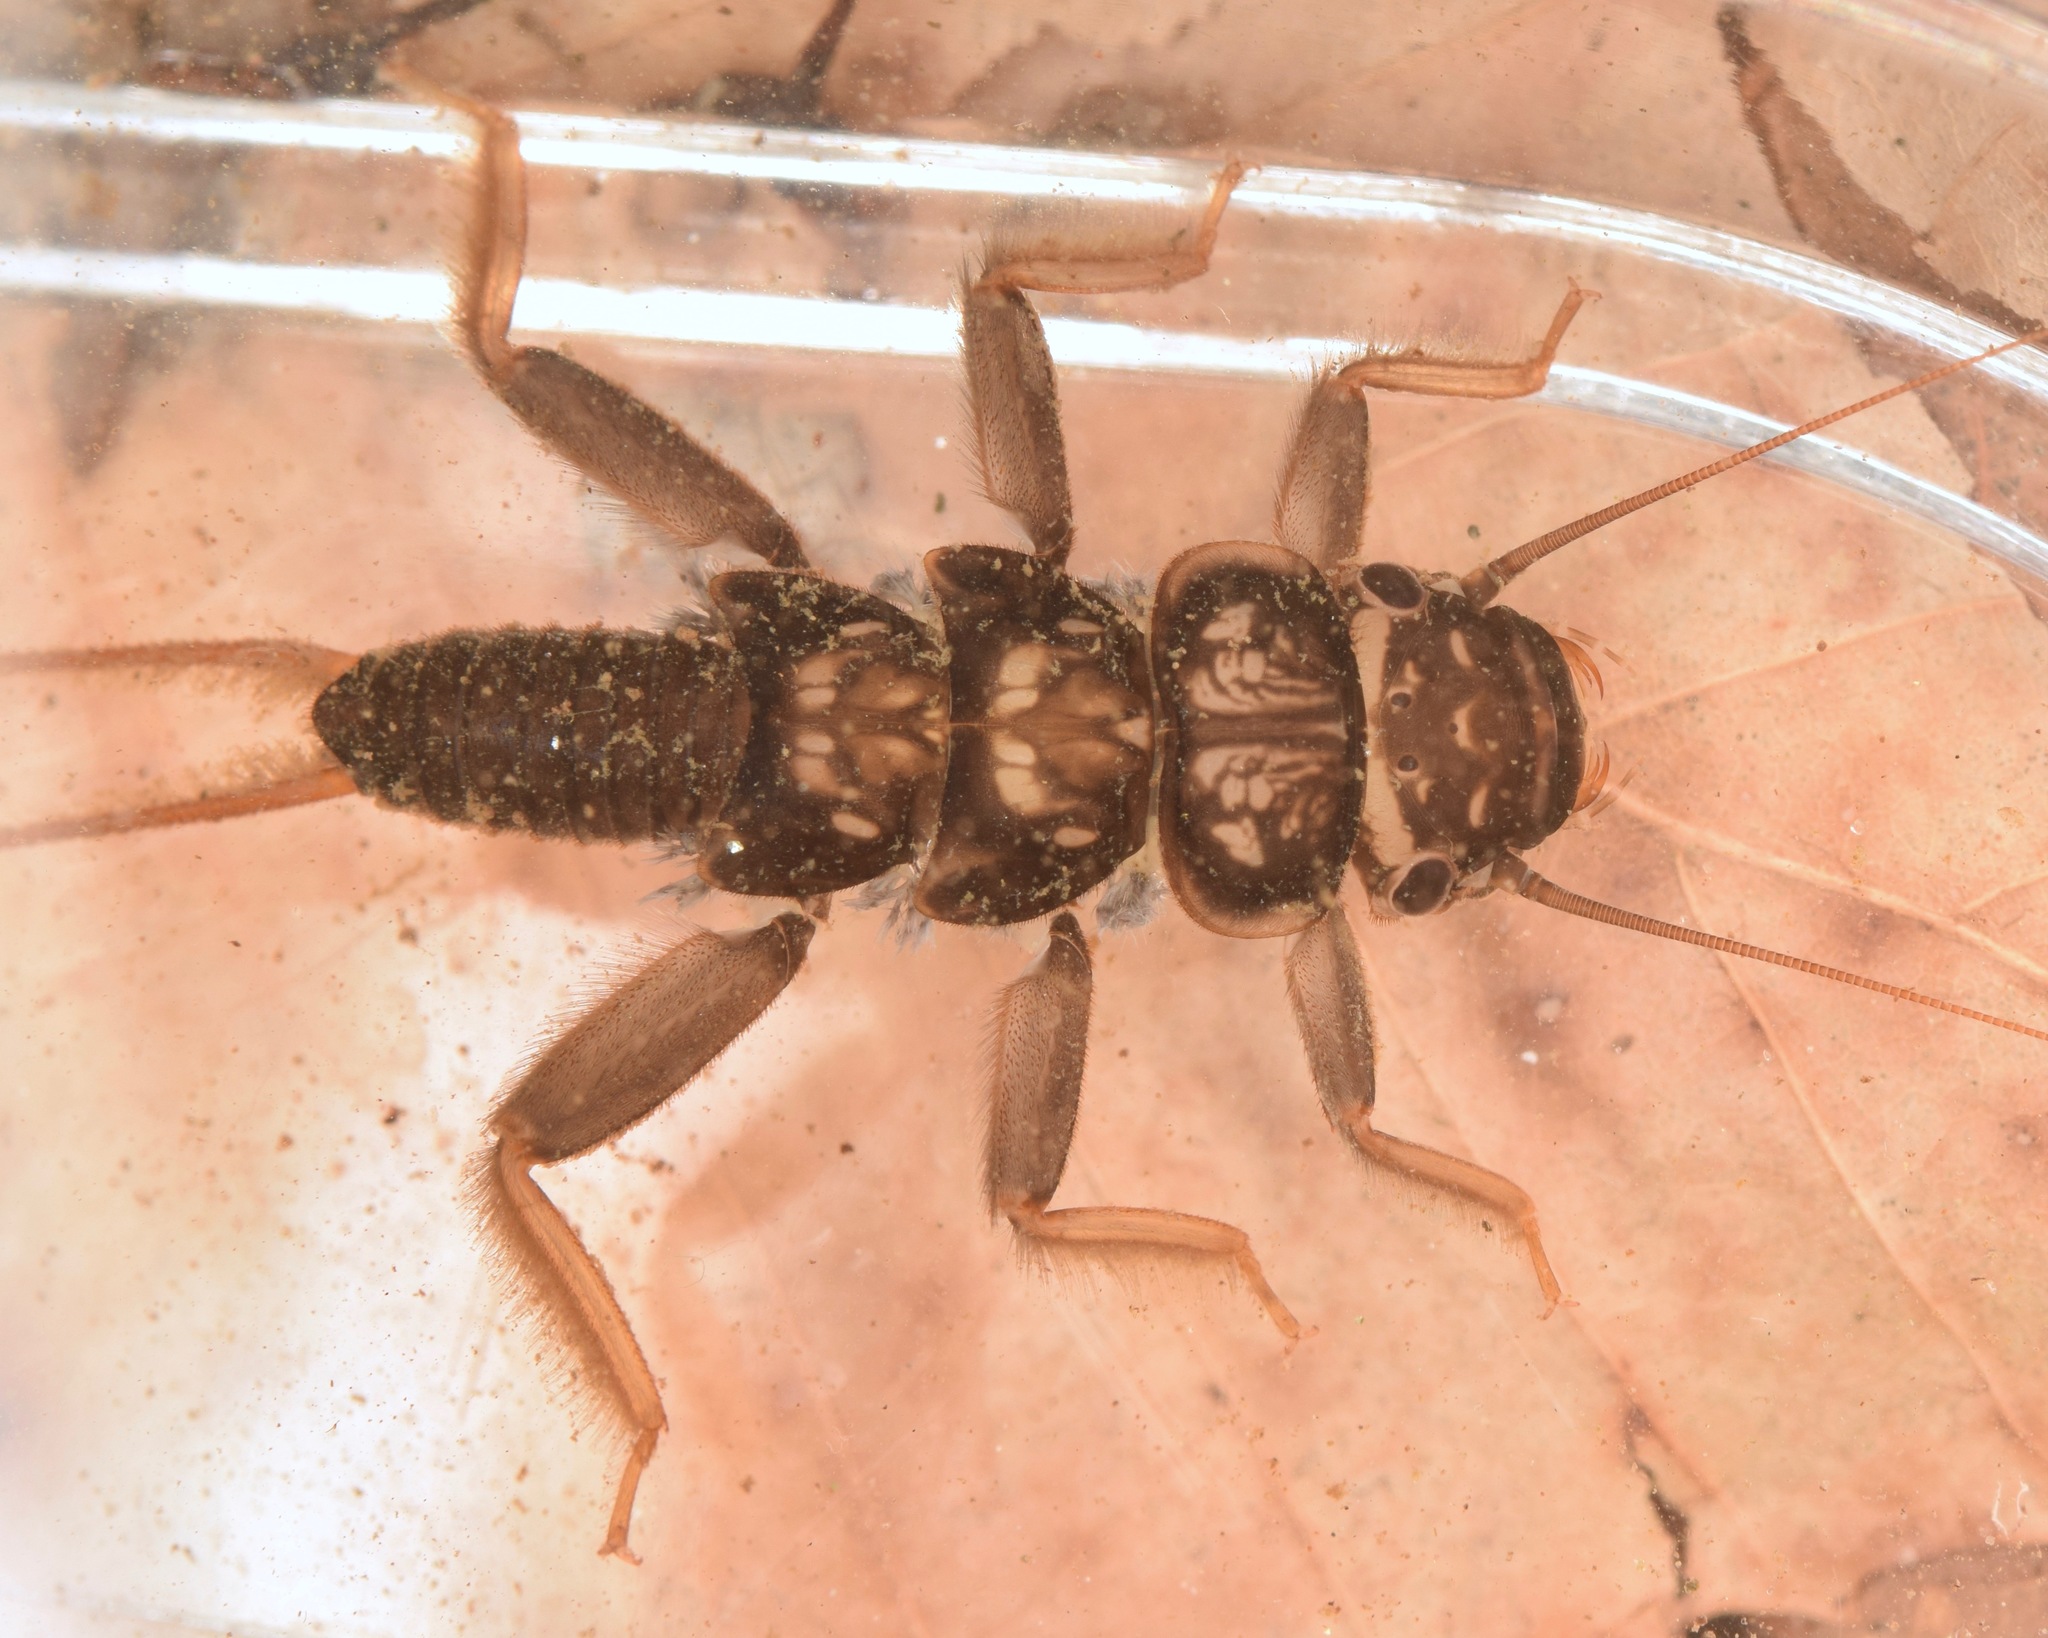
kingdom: Animalia
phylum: Arthropoda
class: Insecta
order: Plecoptera
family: Perlidae
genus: Acroneuria
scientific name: Acroneuria abnormis
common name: Common stone
